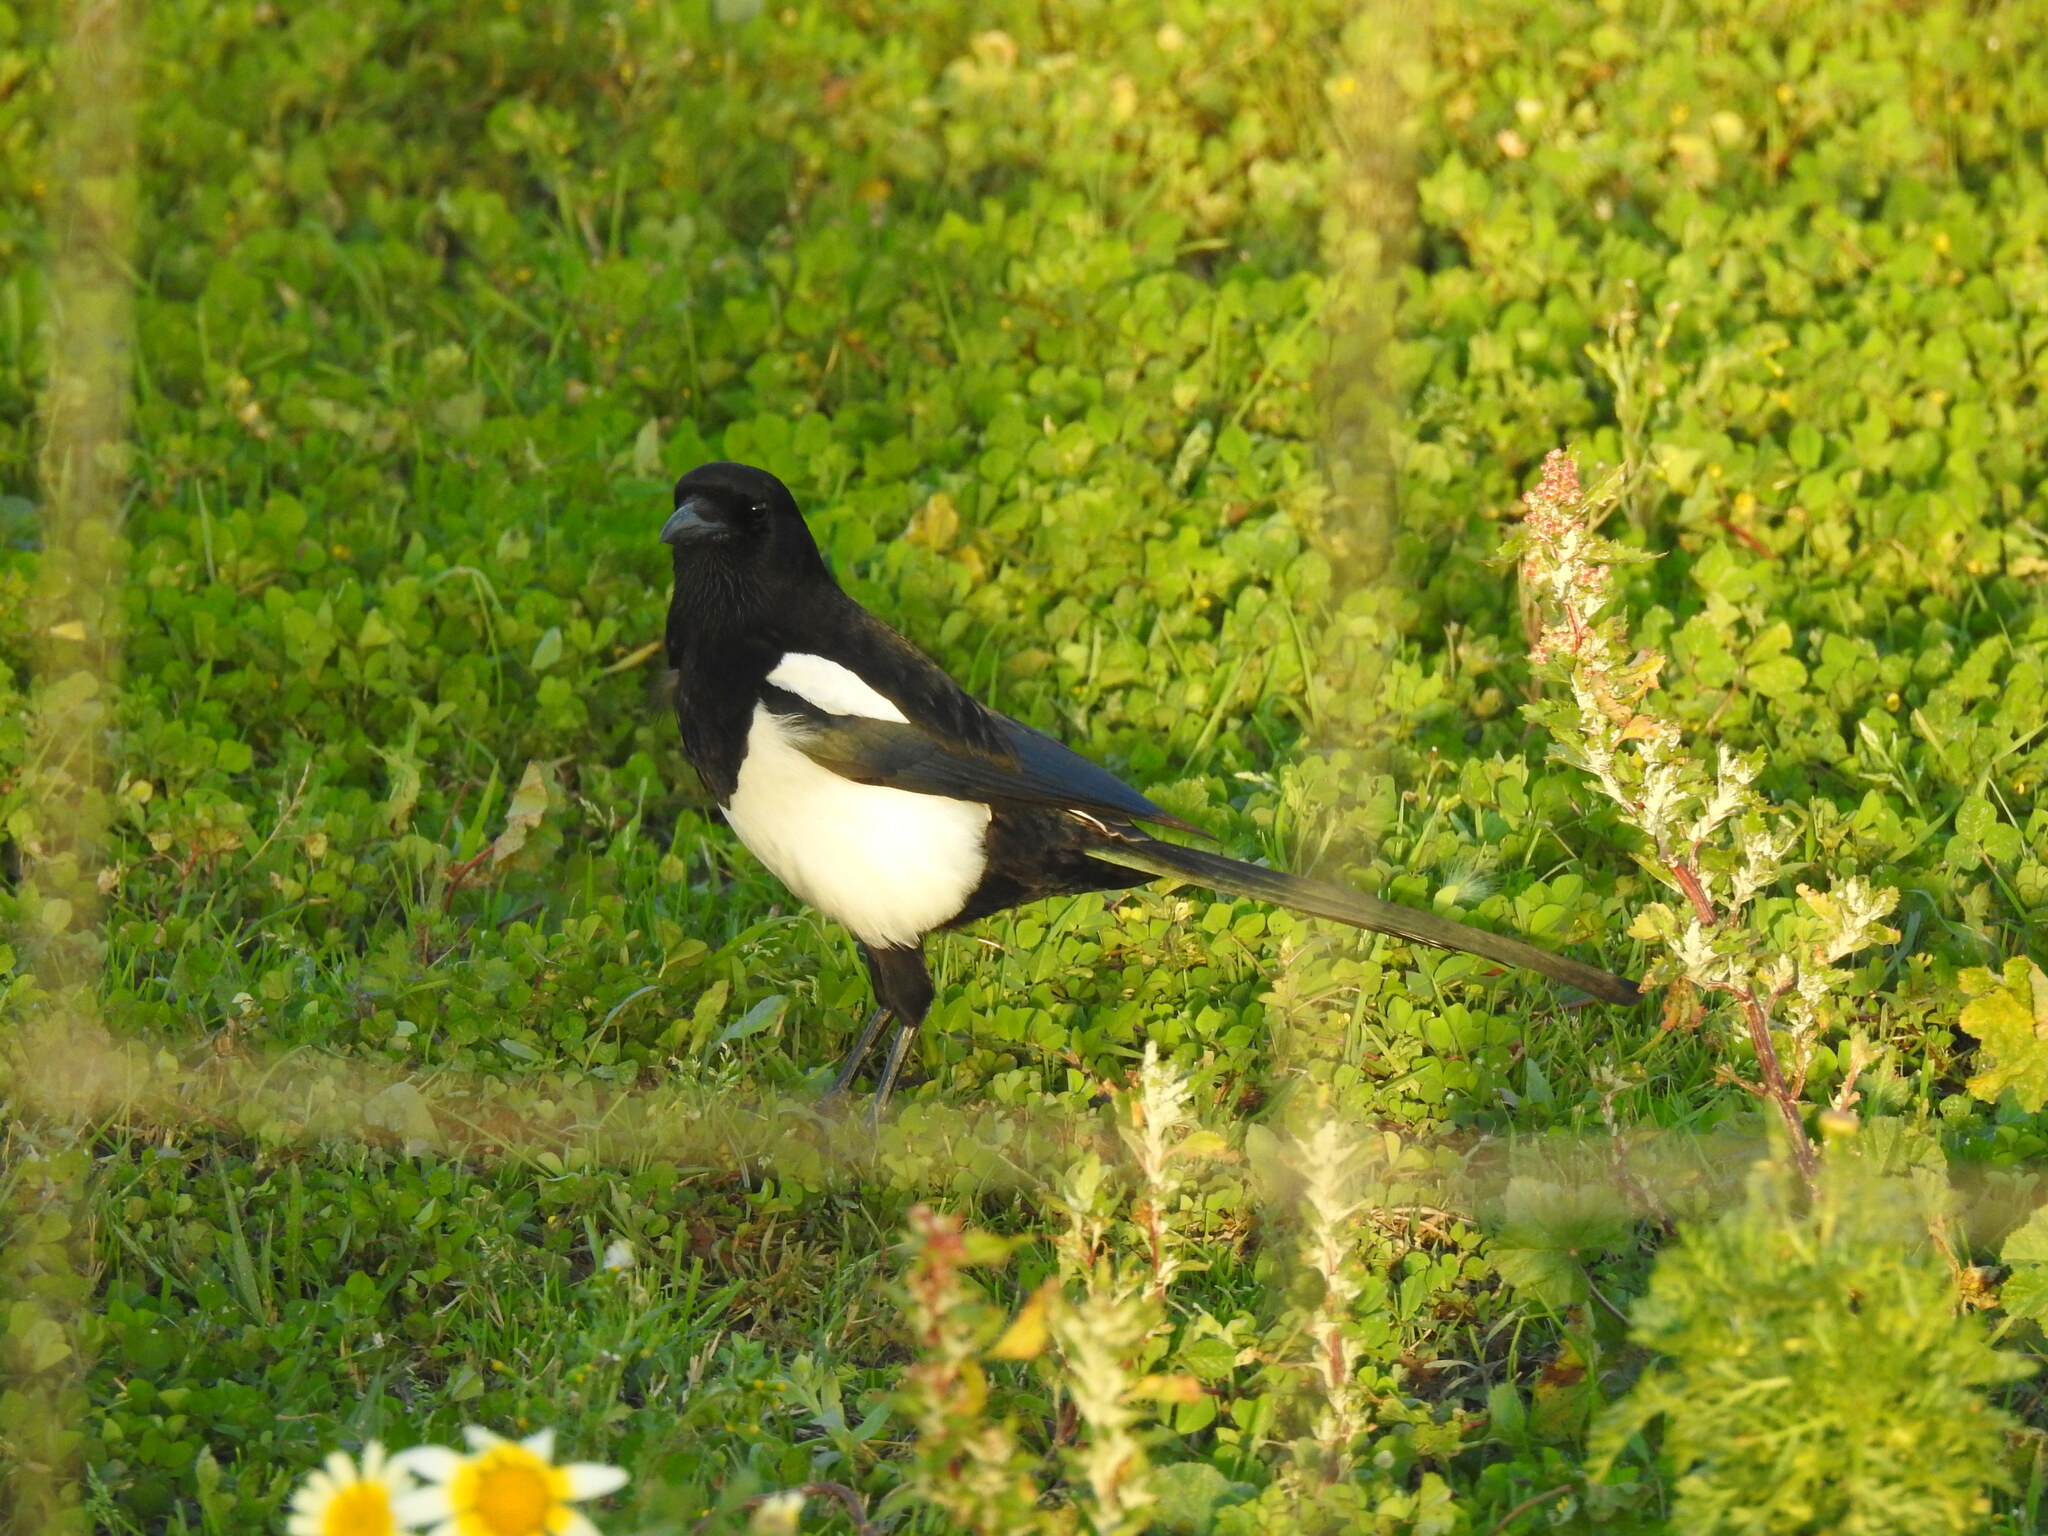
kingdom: Animalia
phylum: Chordata
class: Aves
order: Passeriformes
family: Corvidae
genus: Pica
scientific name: Pica pica
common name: Eurasian magpie
